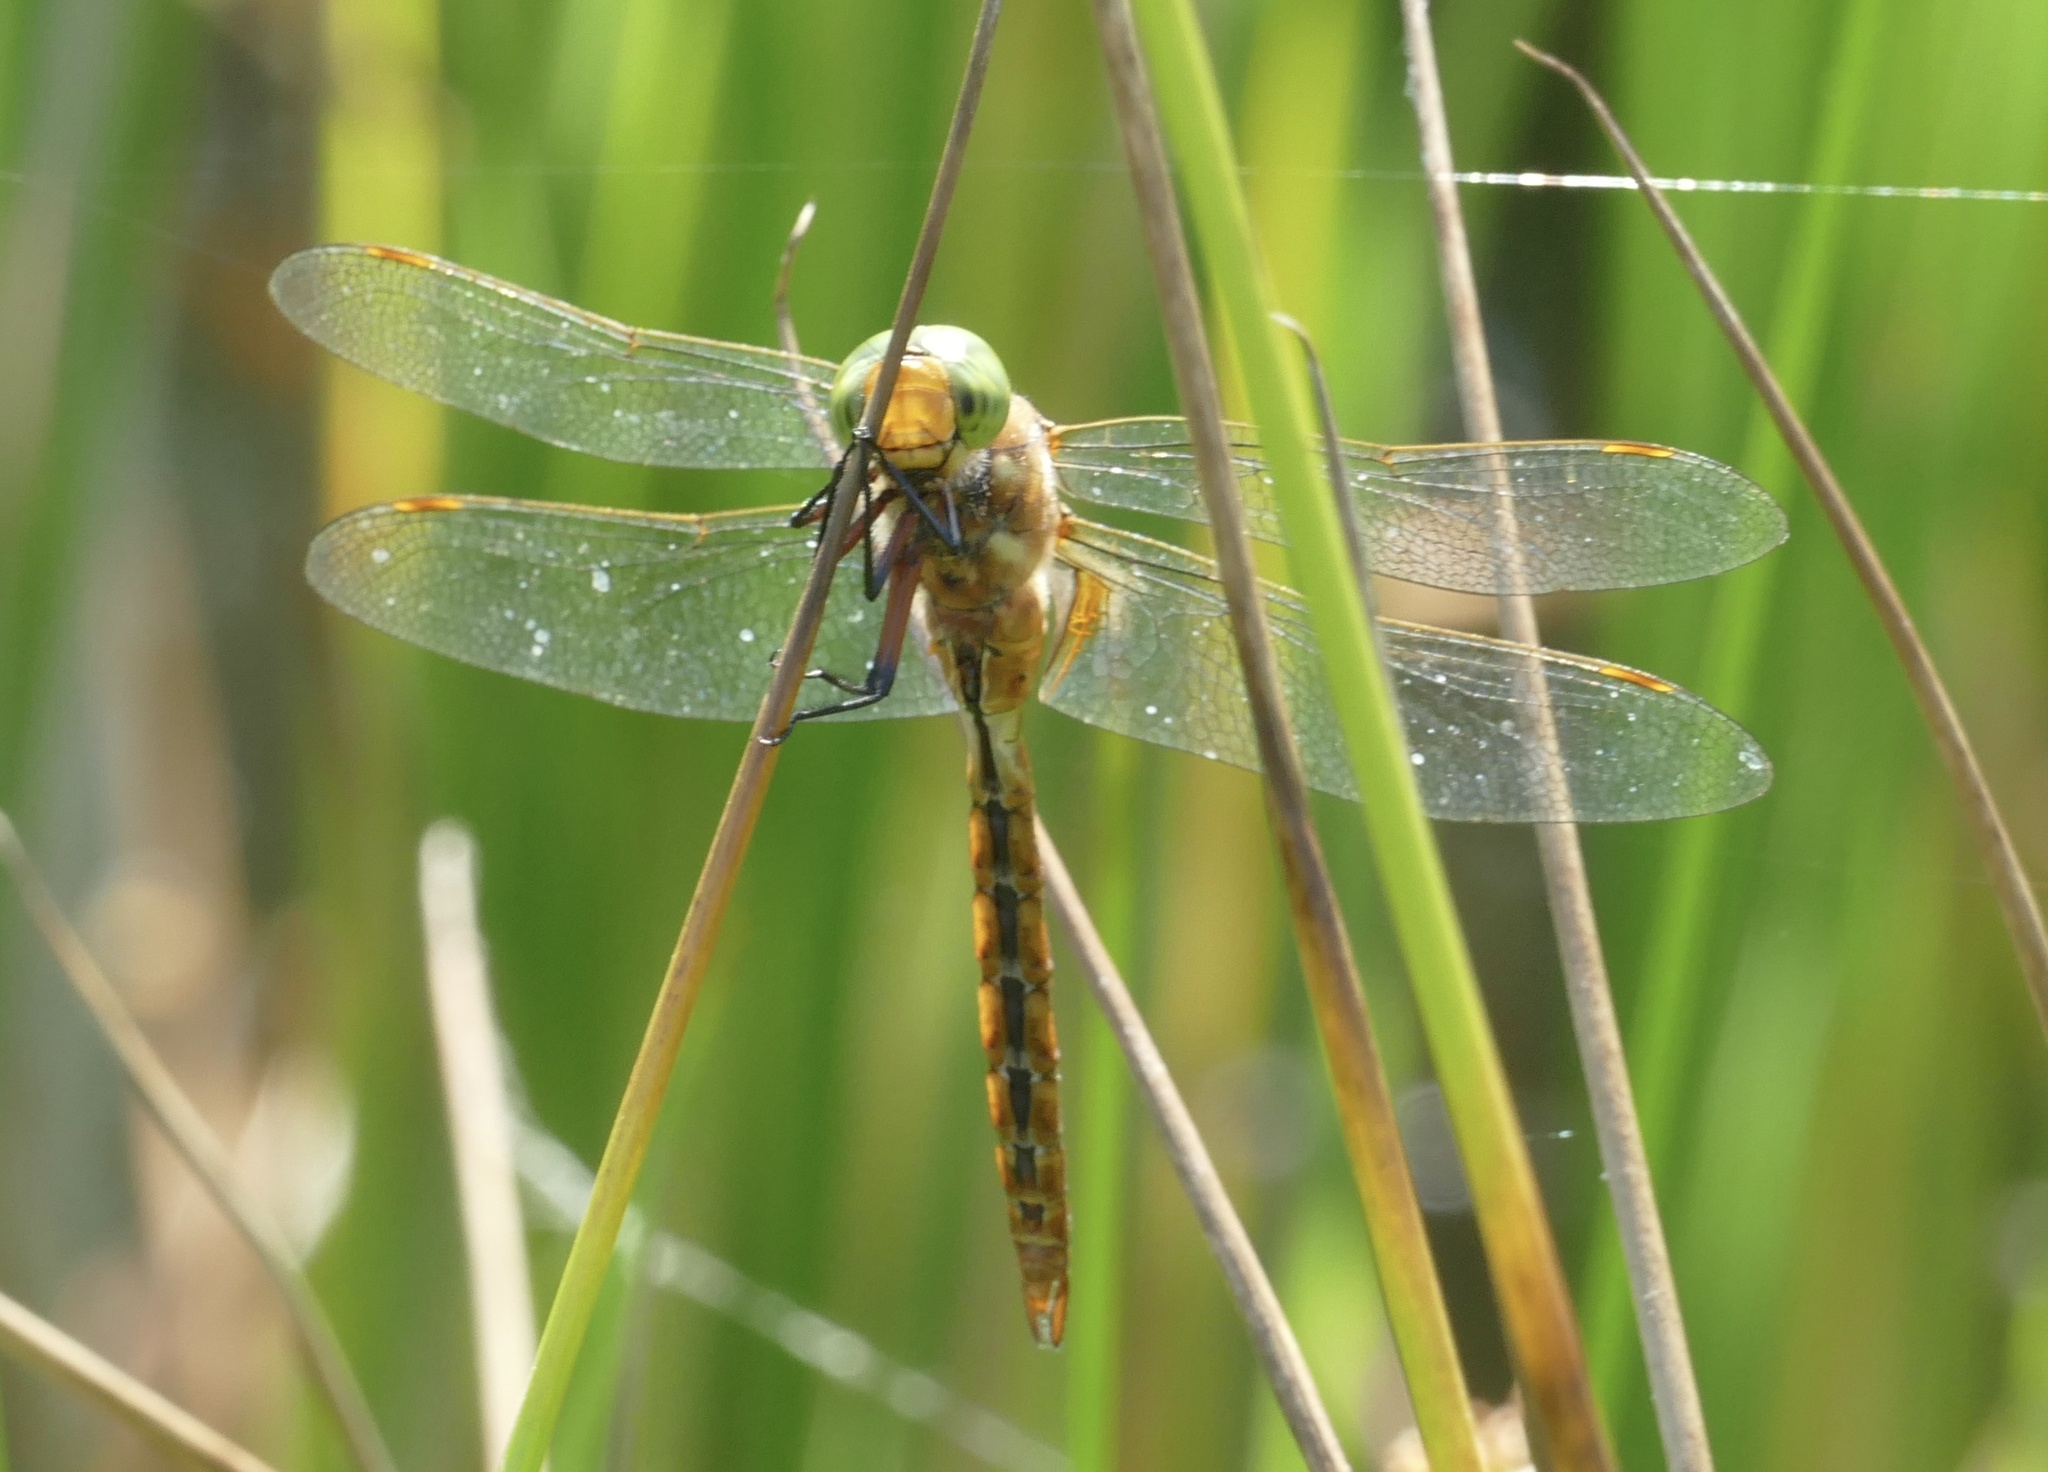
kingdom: Animalia
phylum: Arthropoda
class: Insecta
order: Odonata
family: Aeshnidae
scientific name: Aeshnidae
